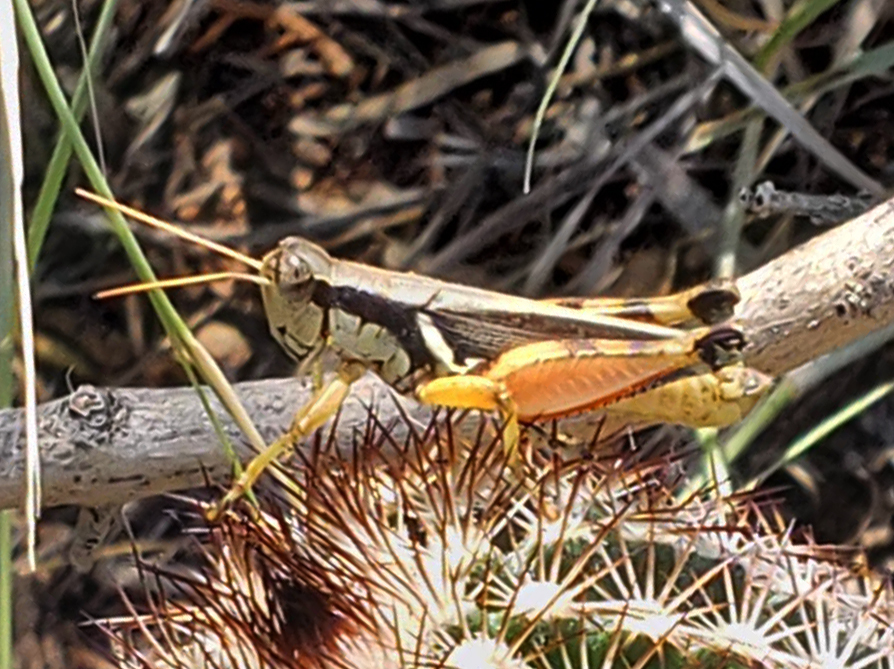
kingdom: Animalia
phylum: Arthropoda
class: Insecta
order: Orthoptera
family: Acrididae
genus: Melanoplus
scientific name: Melanoplus glaucipes
